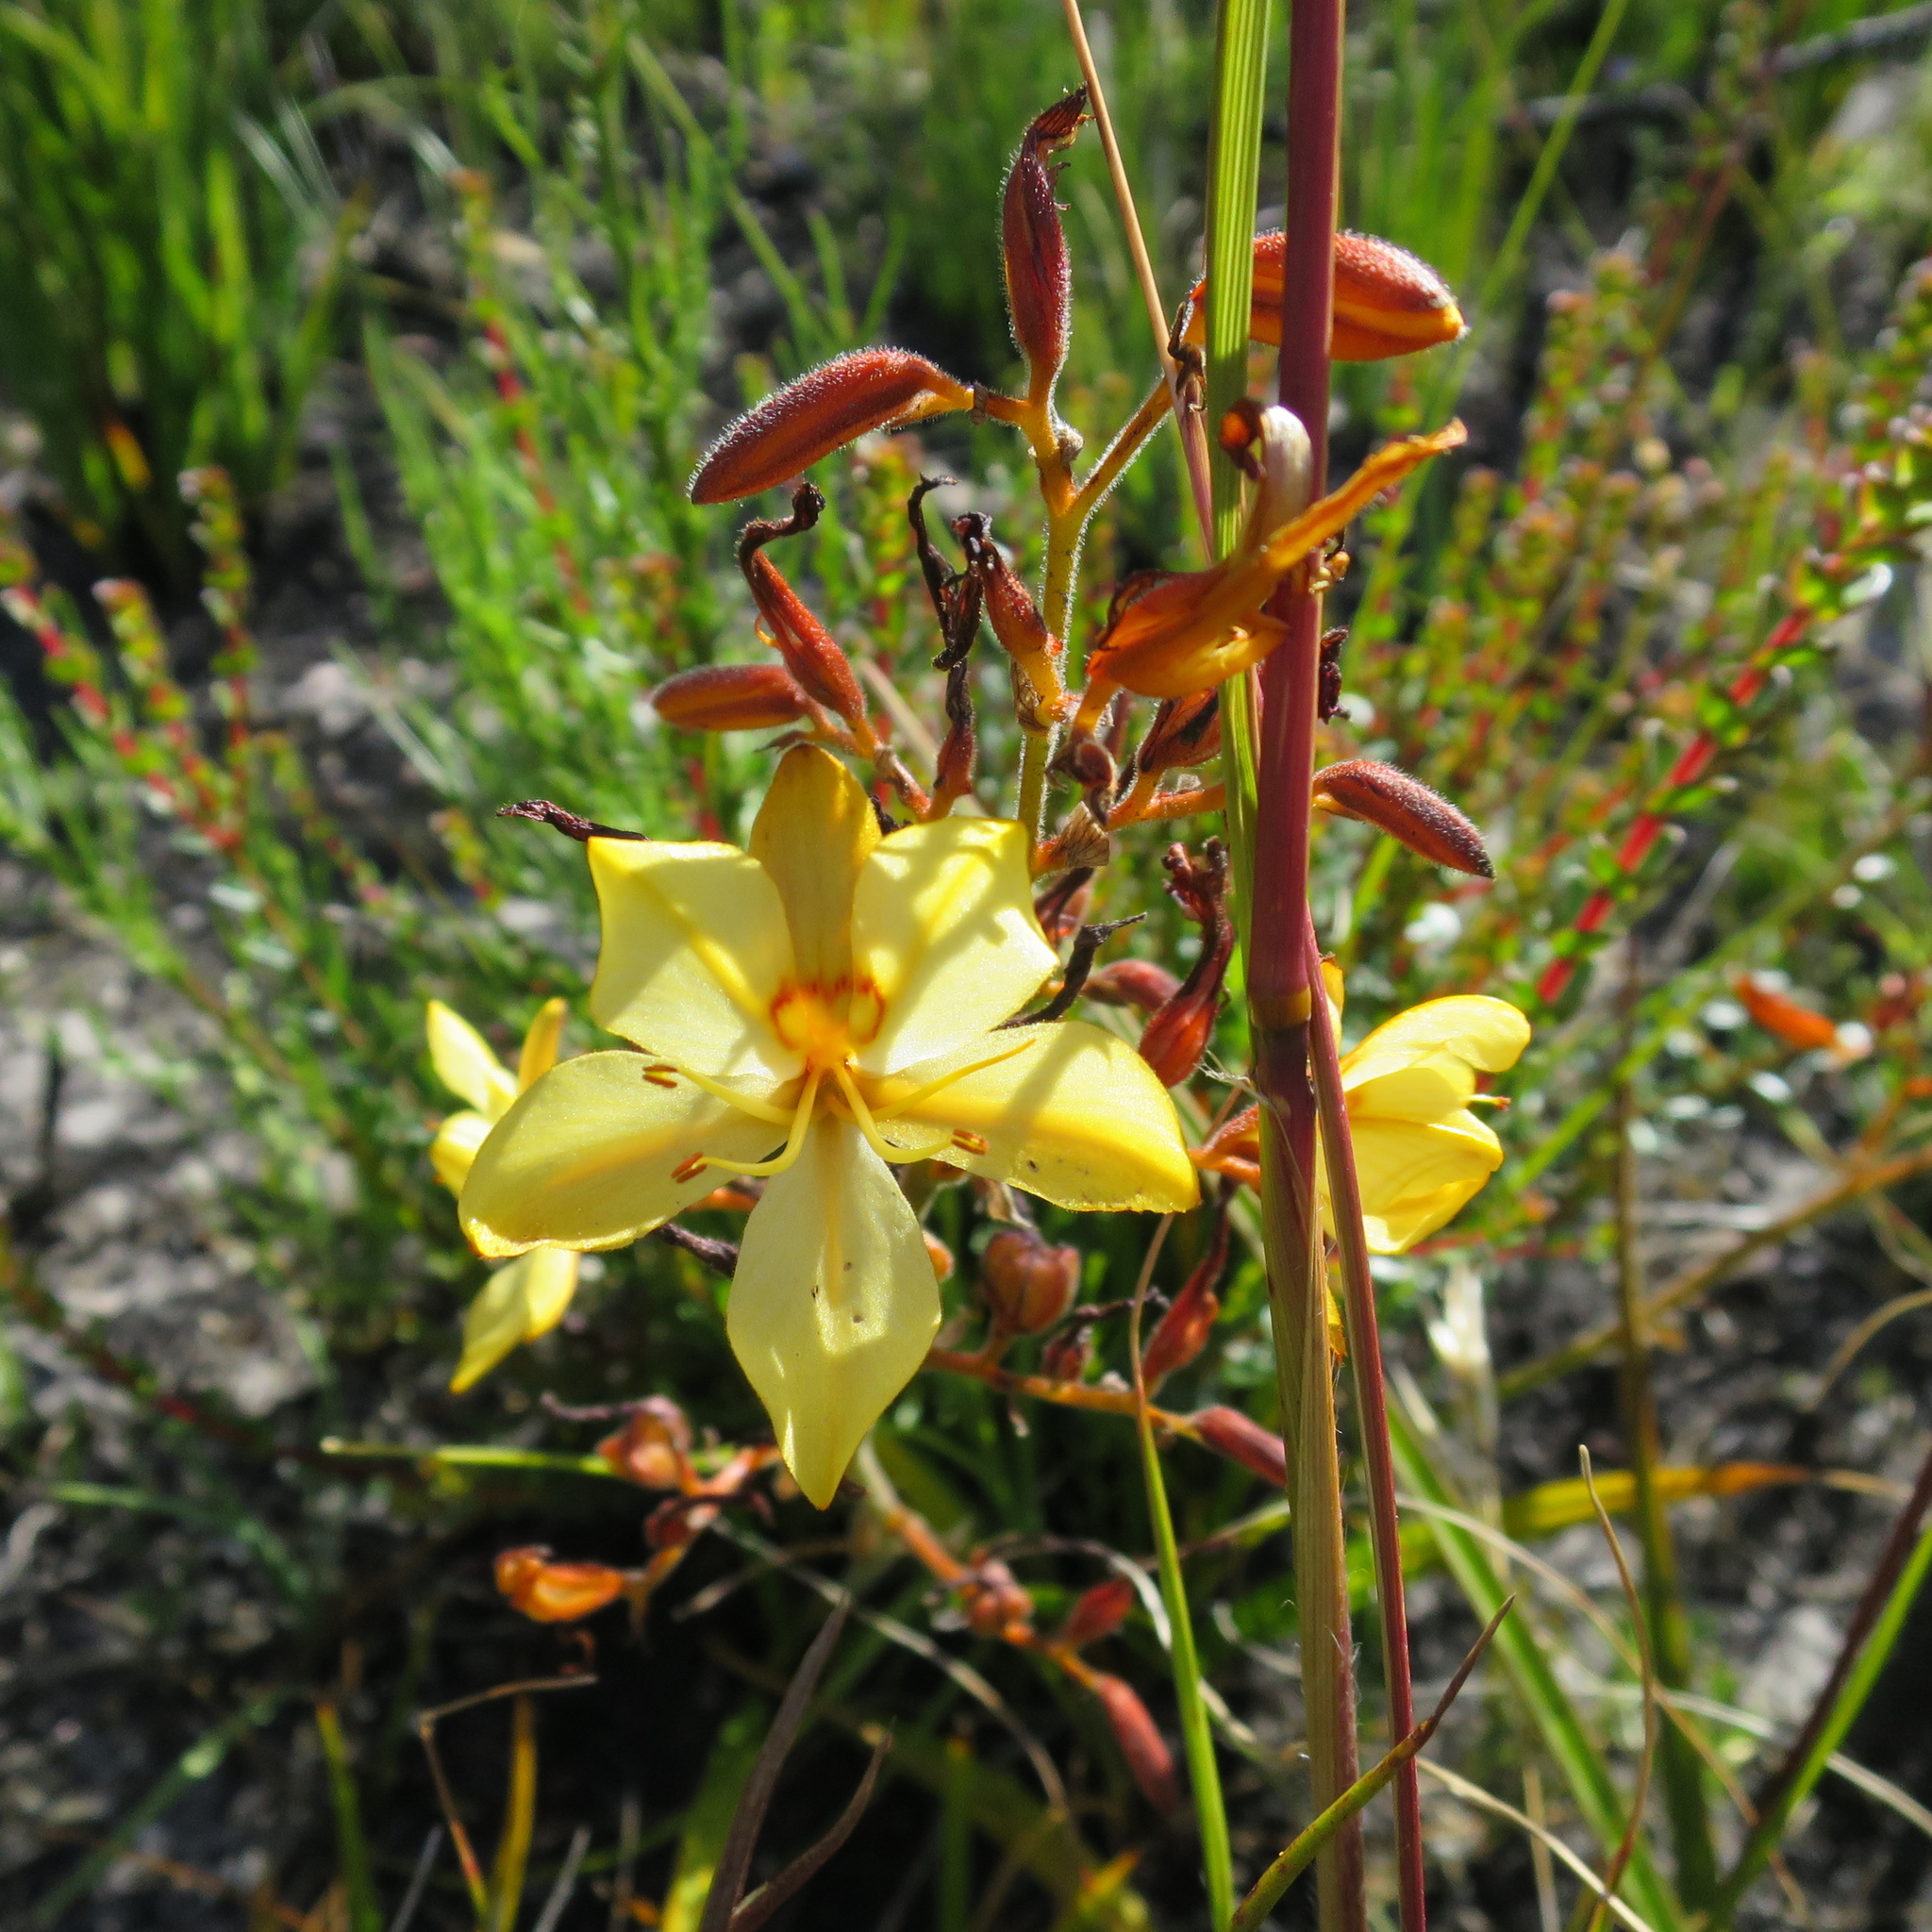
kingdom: Plantae
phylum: Tracheophyta
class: Liliopsida
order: Commelinales
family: Haemodoraceae
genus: Wachendorfia
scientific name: Wachendorfia paniculata
